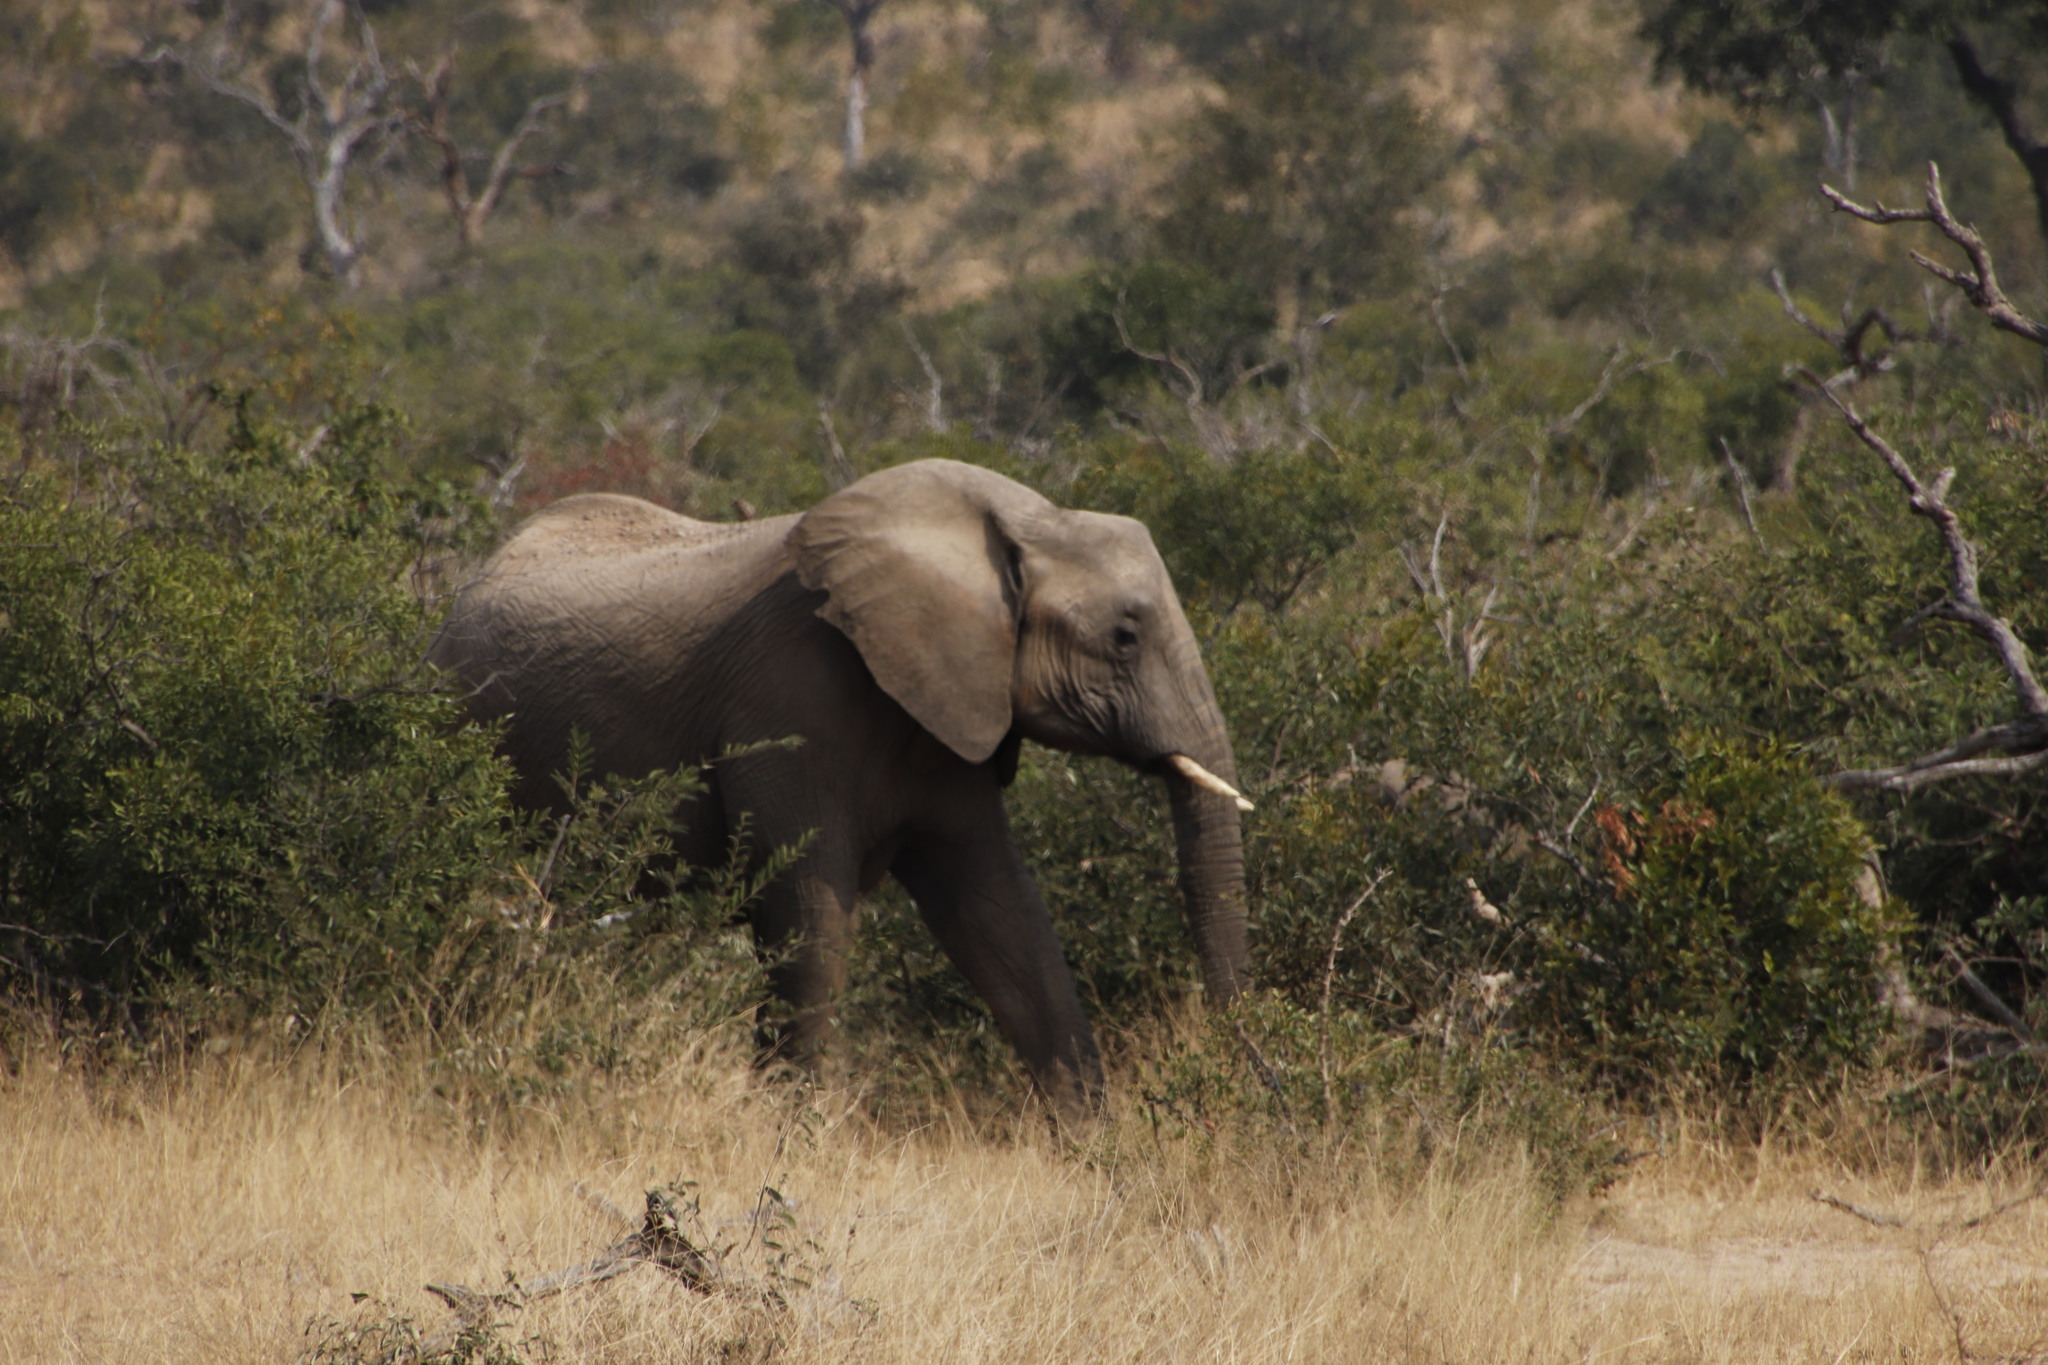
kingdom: Animalia
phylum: Chordata
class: Mammalia
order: Proboscidea
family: Elephantidae
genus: Loxodonta
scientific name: Loxodonta africana
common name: African elephant
